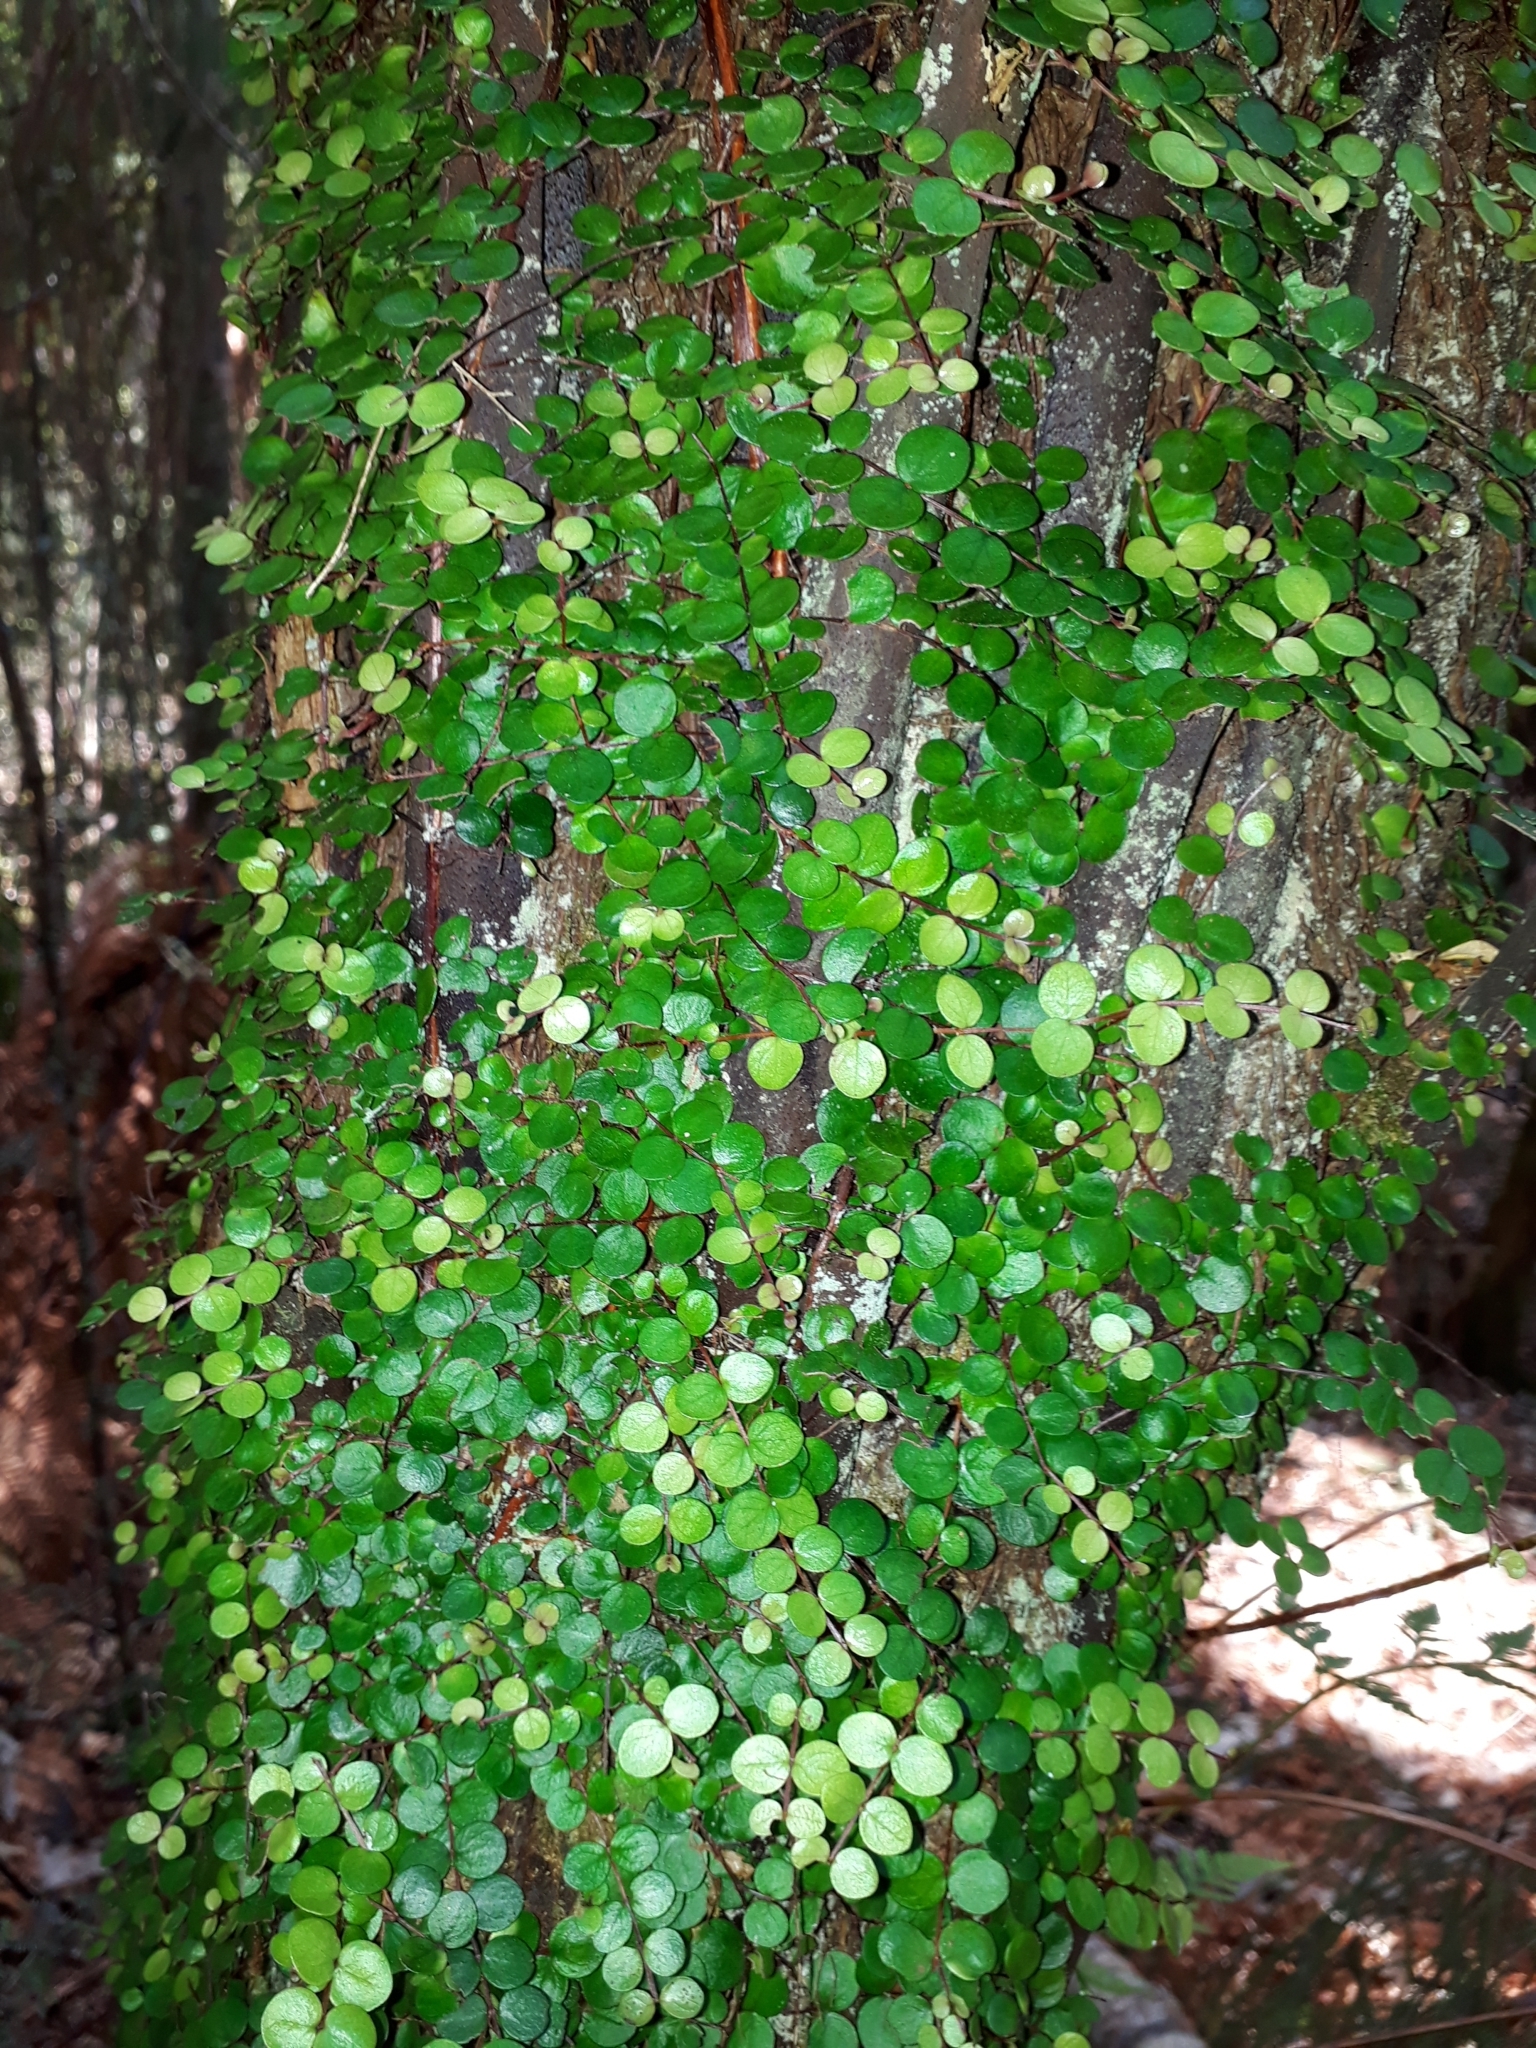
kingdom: Plantae
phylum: Tracheophyta
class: Magnoliopsida
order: Myrtales
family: Myrtaceae
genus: Metrosideros
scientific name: Metrosideros perforata
